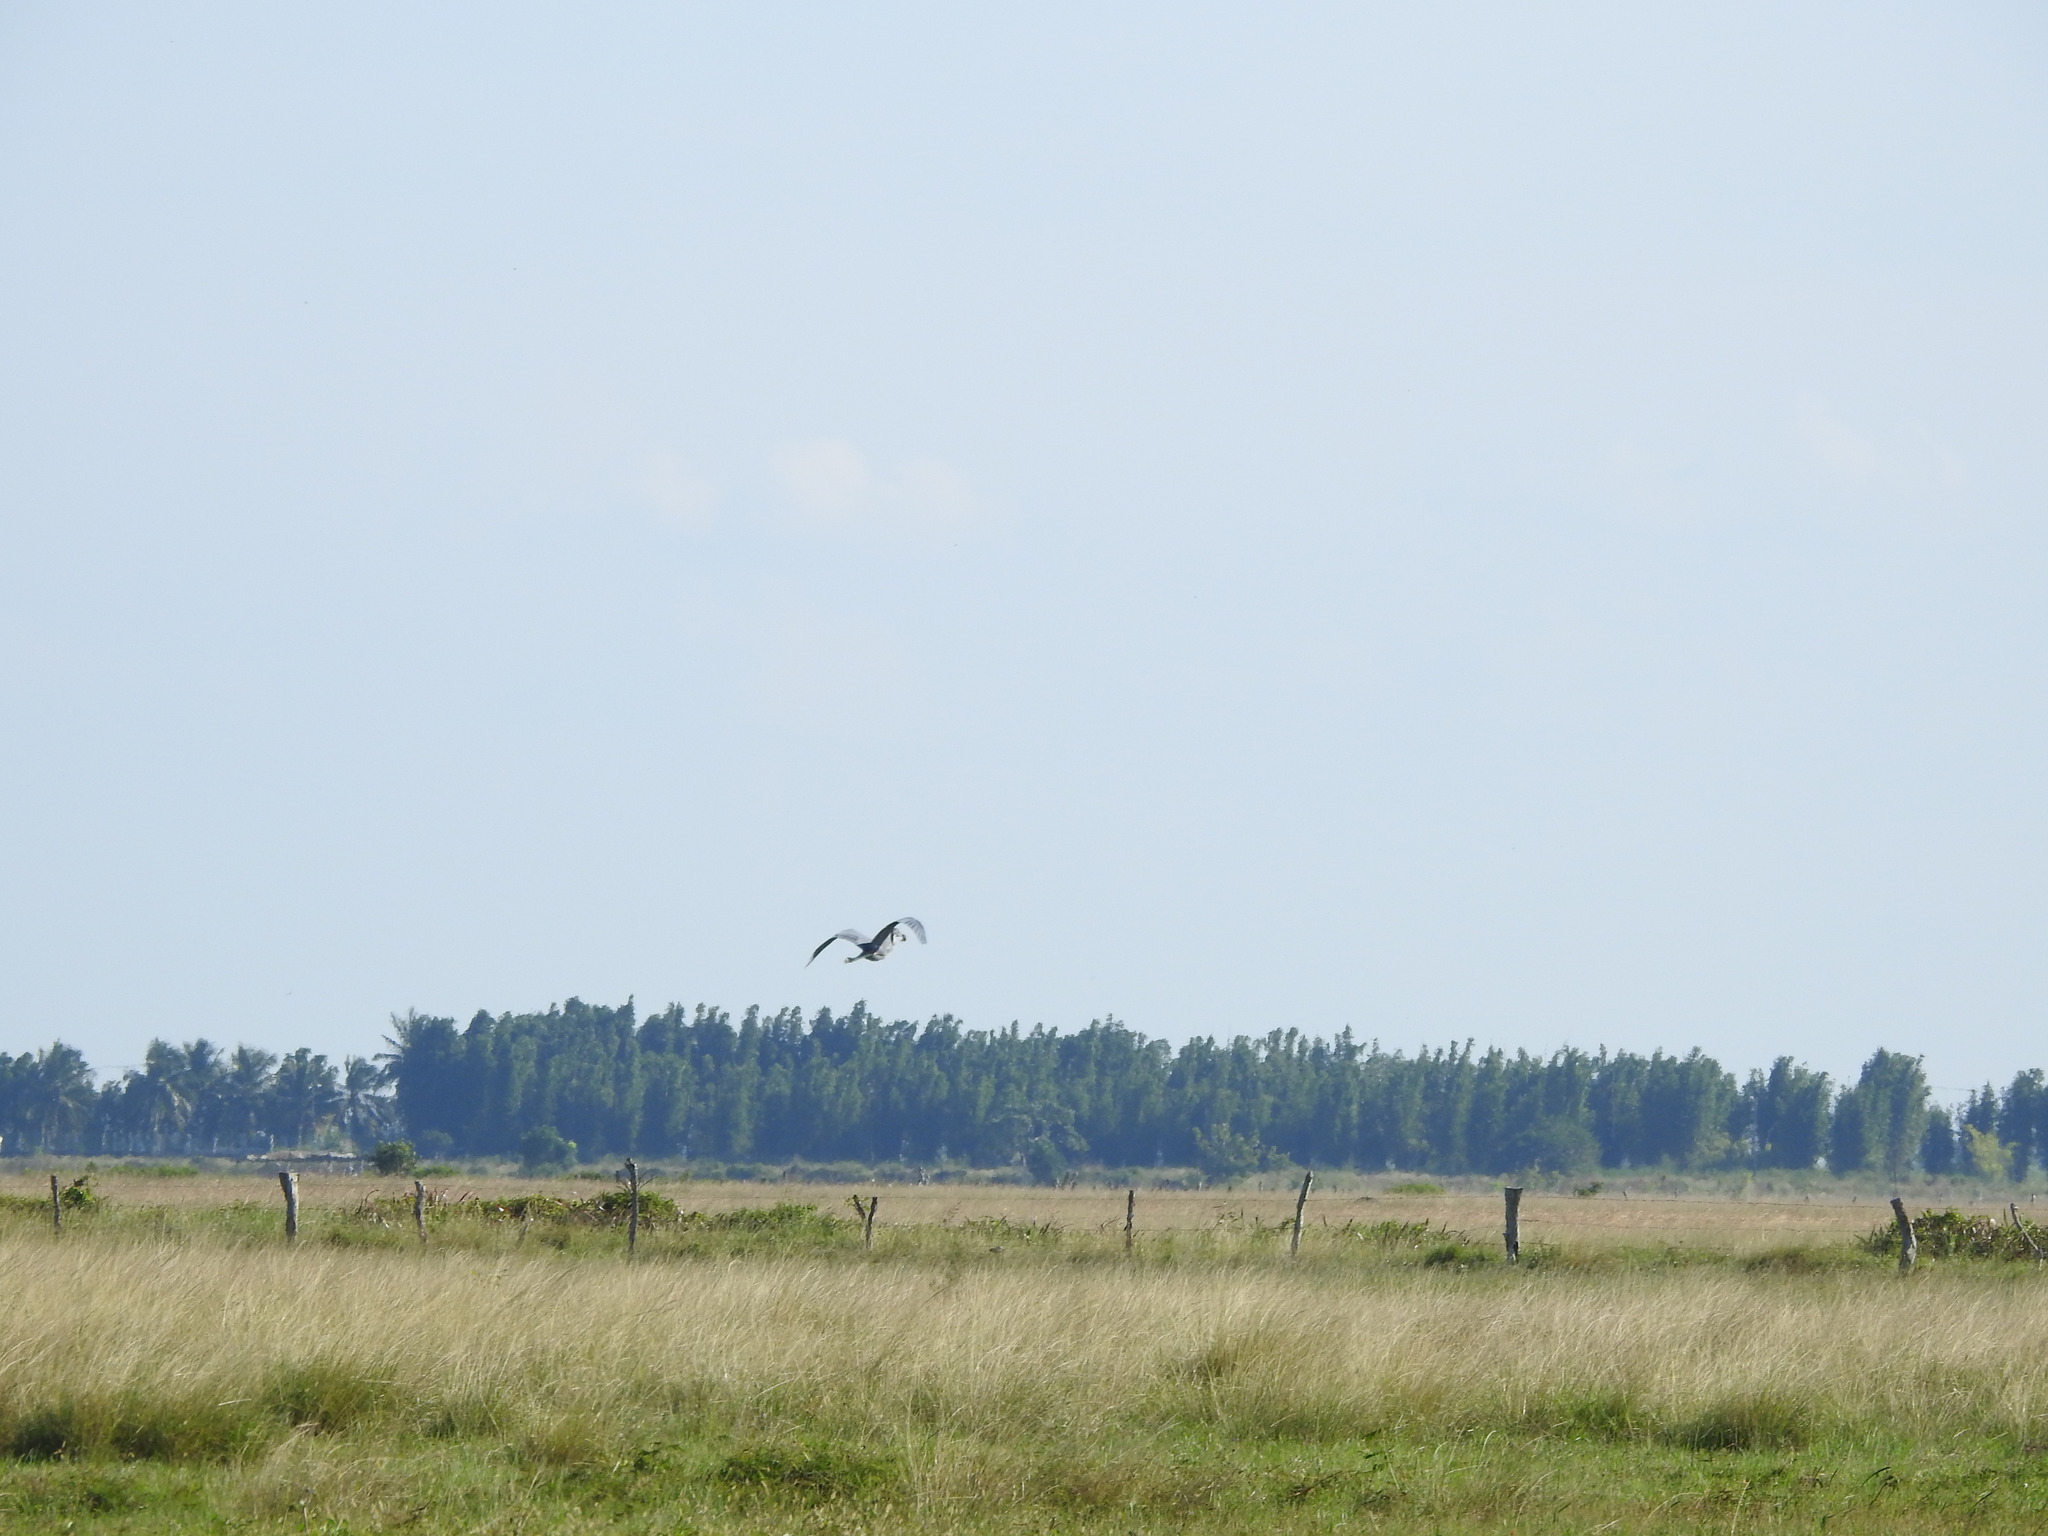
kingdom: Animalia
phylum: Chordata
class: Aves
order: Pelecaniformes
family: Ardeidae
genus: Ardea
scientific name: Ardea herodias
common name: Great blue heron
